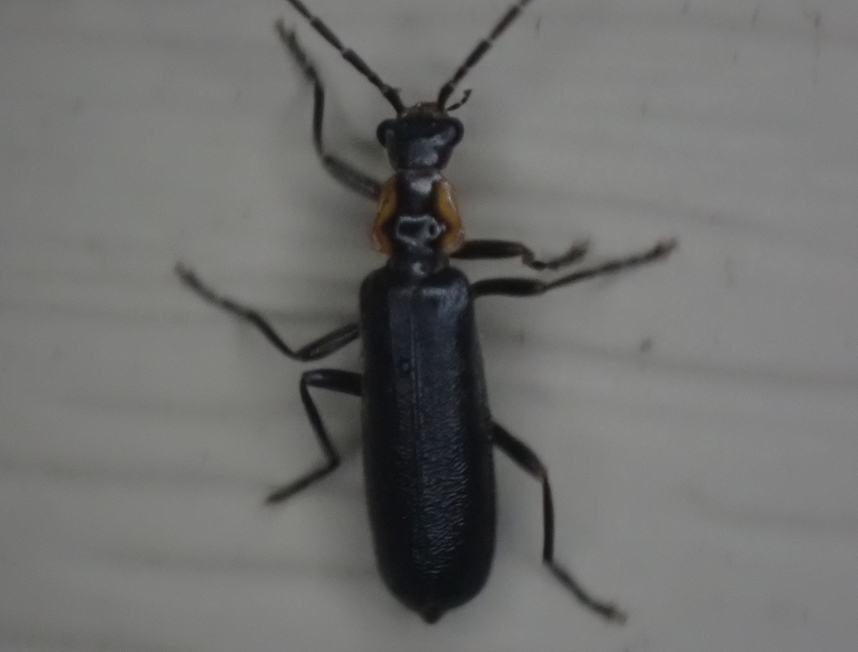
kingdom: Animalia
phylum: Arthropoda
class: Insecta
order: Coleoptera
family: Cantharidae
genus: Rhagonycha
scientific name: Rhagonycha angulata
